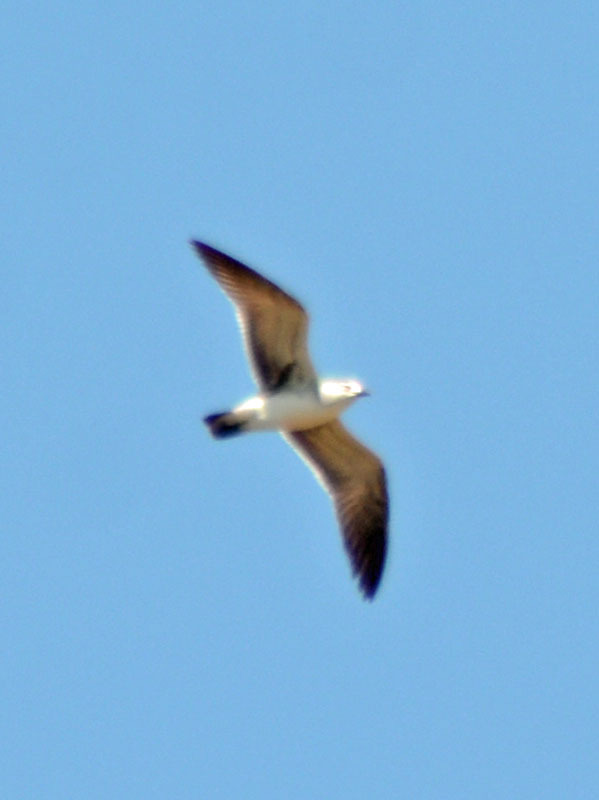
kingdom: Animalia
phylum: Chordata
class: Aves
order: Charadriiformes
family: Laridae
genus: Leucophaeus
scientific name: Leucophaeus atricilla
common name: Laughing gull
